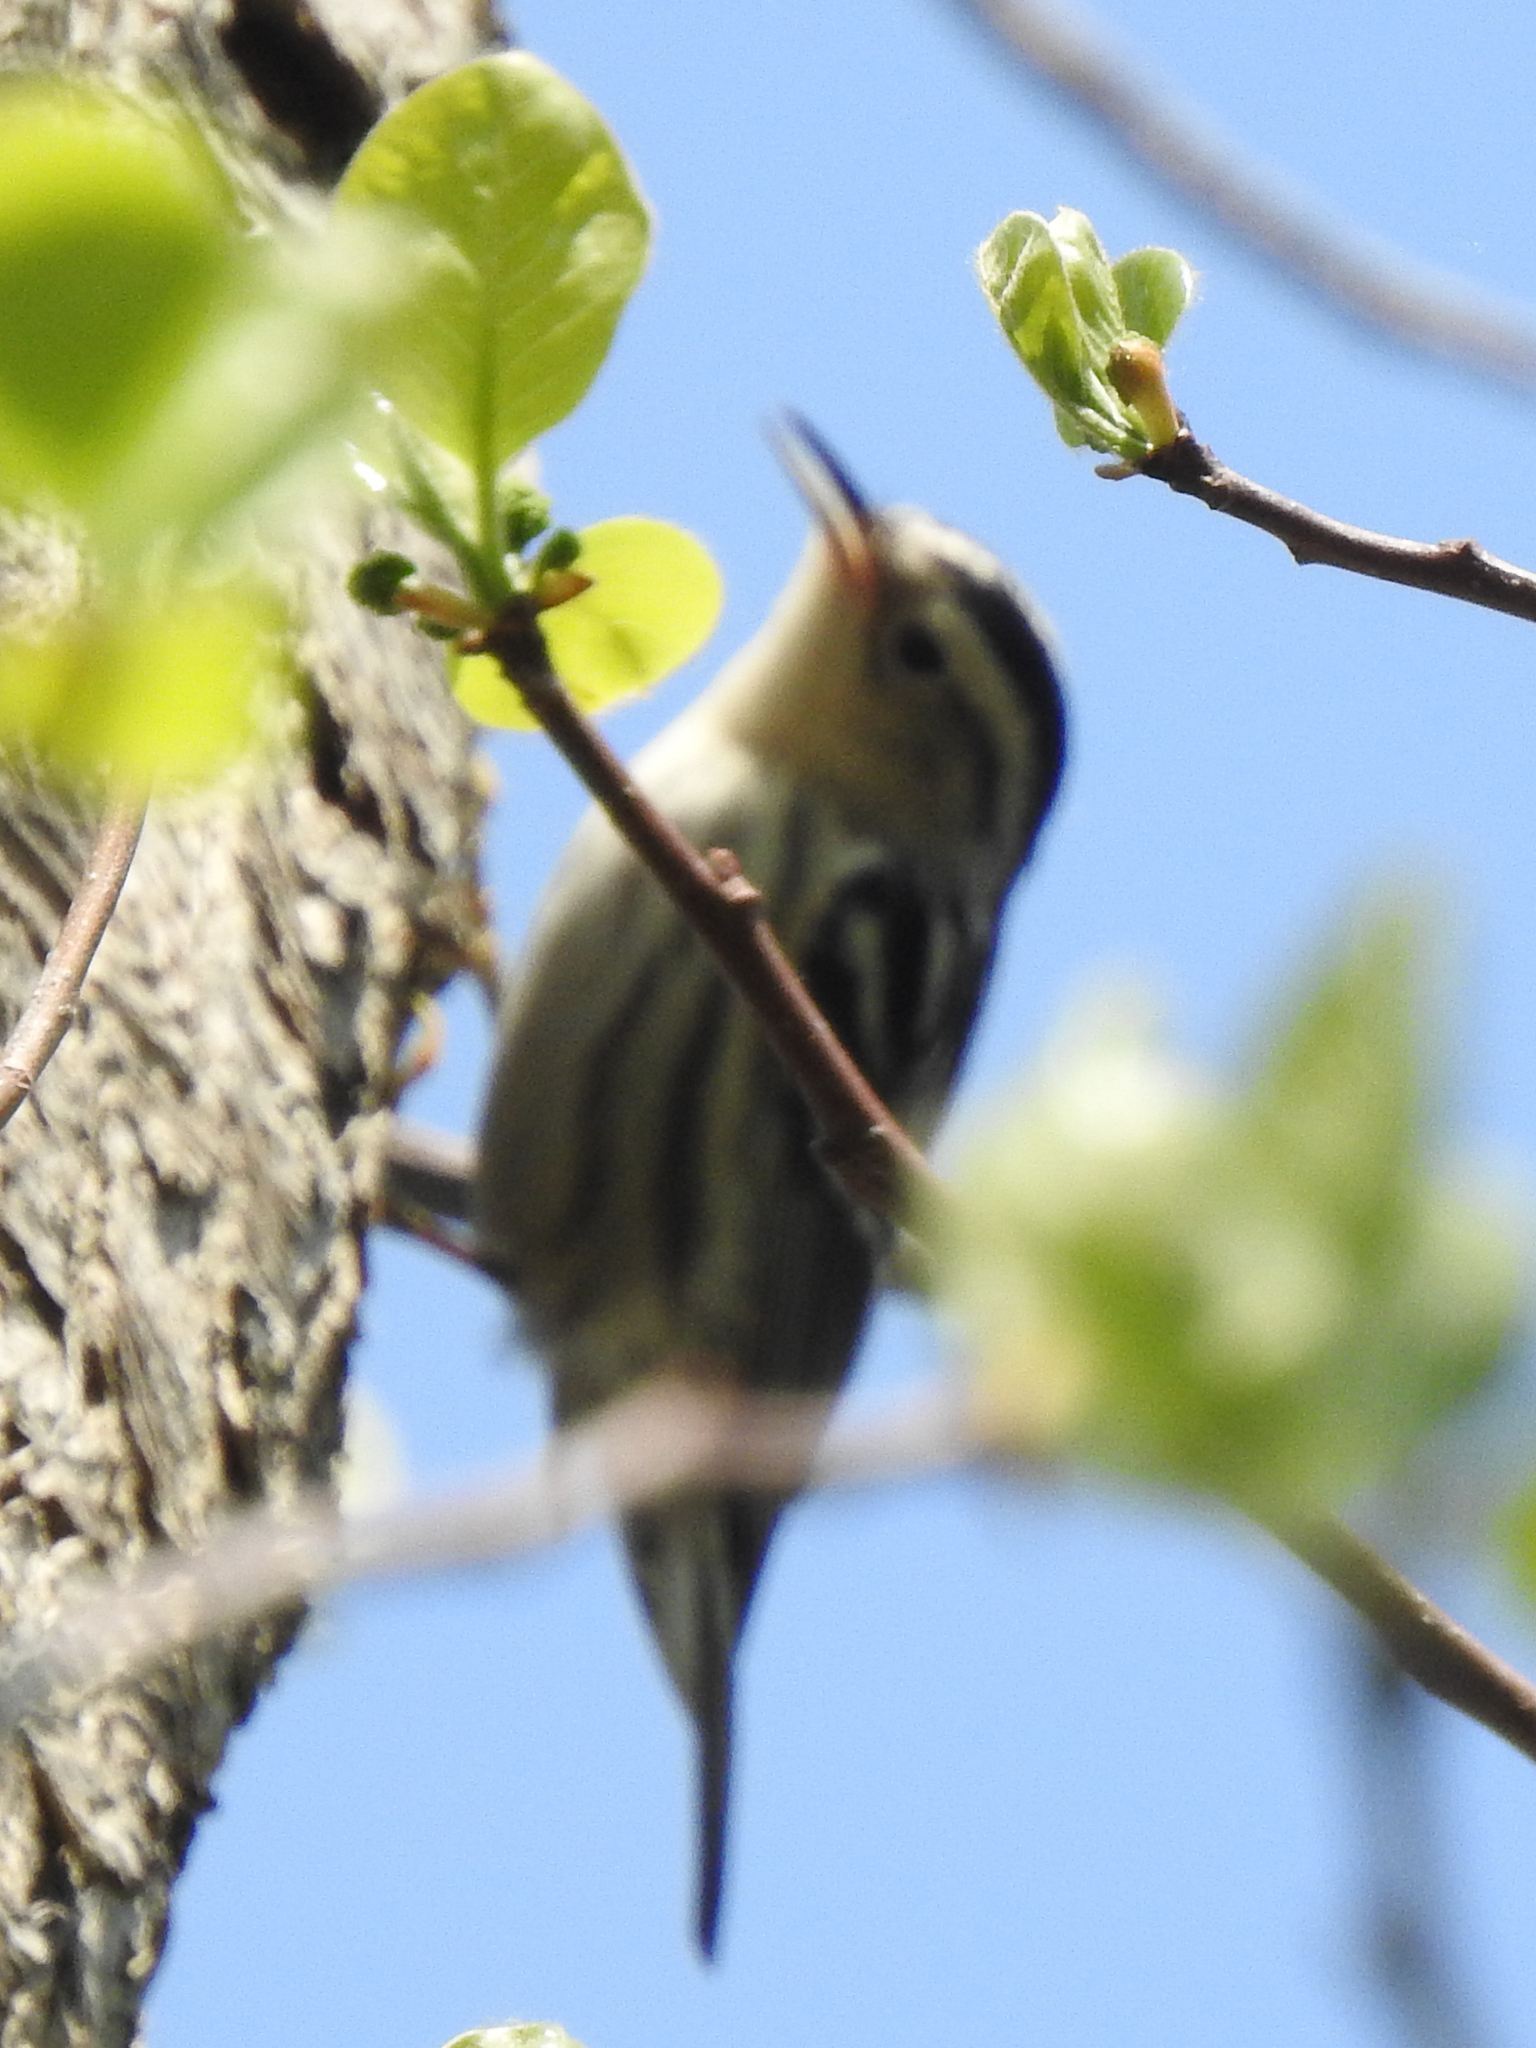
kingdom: Animalia
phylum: Chordata
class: Aves
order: Passeriformes
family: Parulidae
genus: Mniotilta
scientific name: Mniotilta varia
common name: Black-and-white warbler
